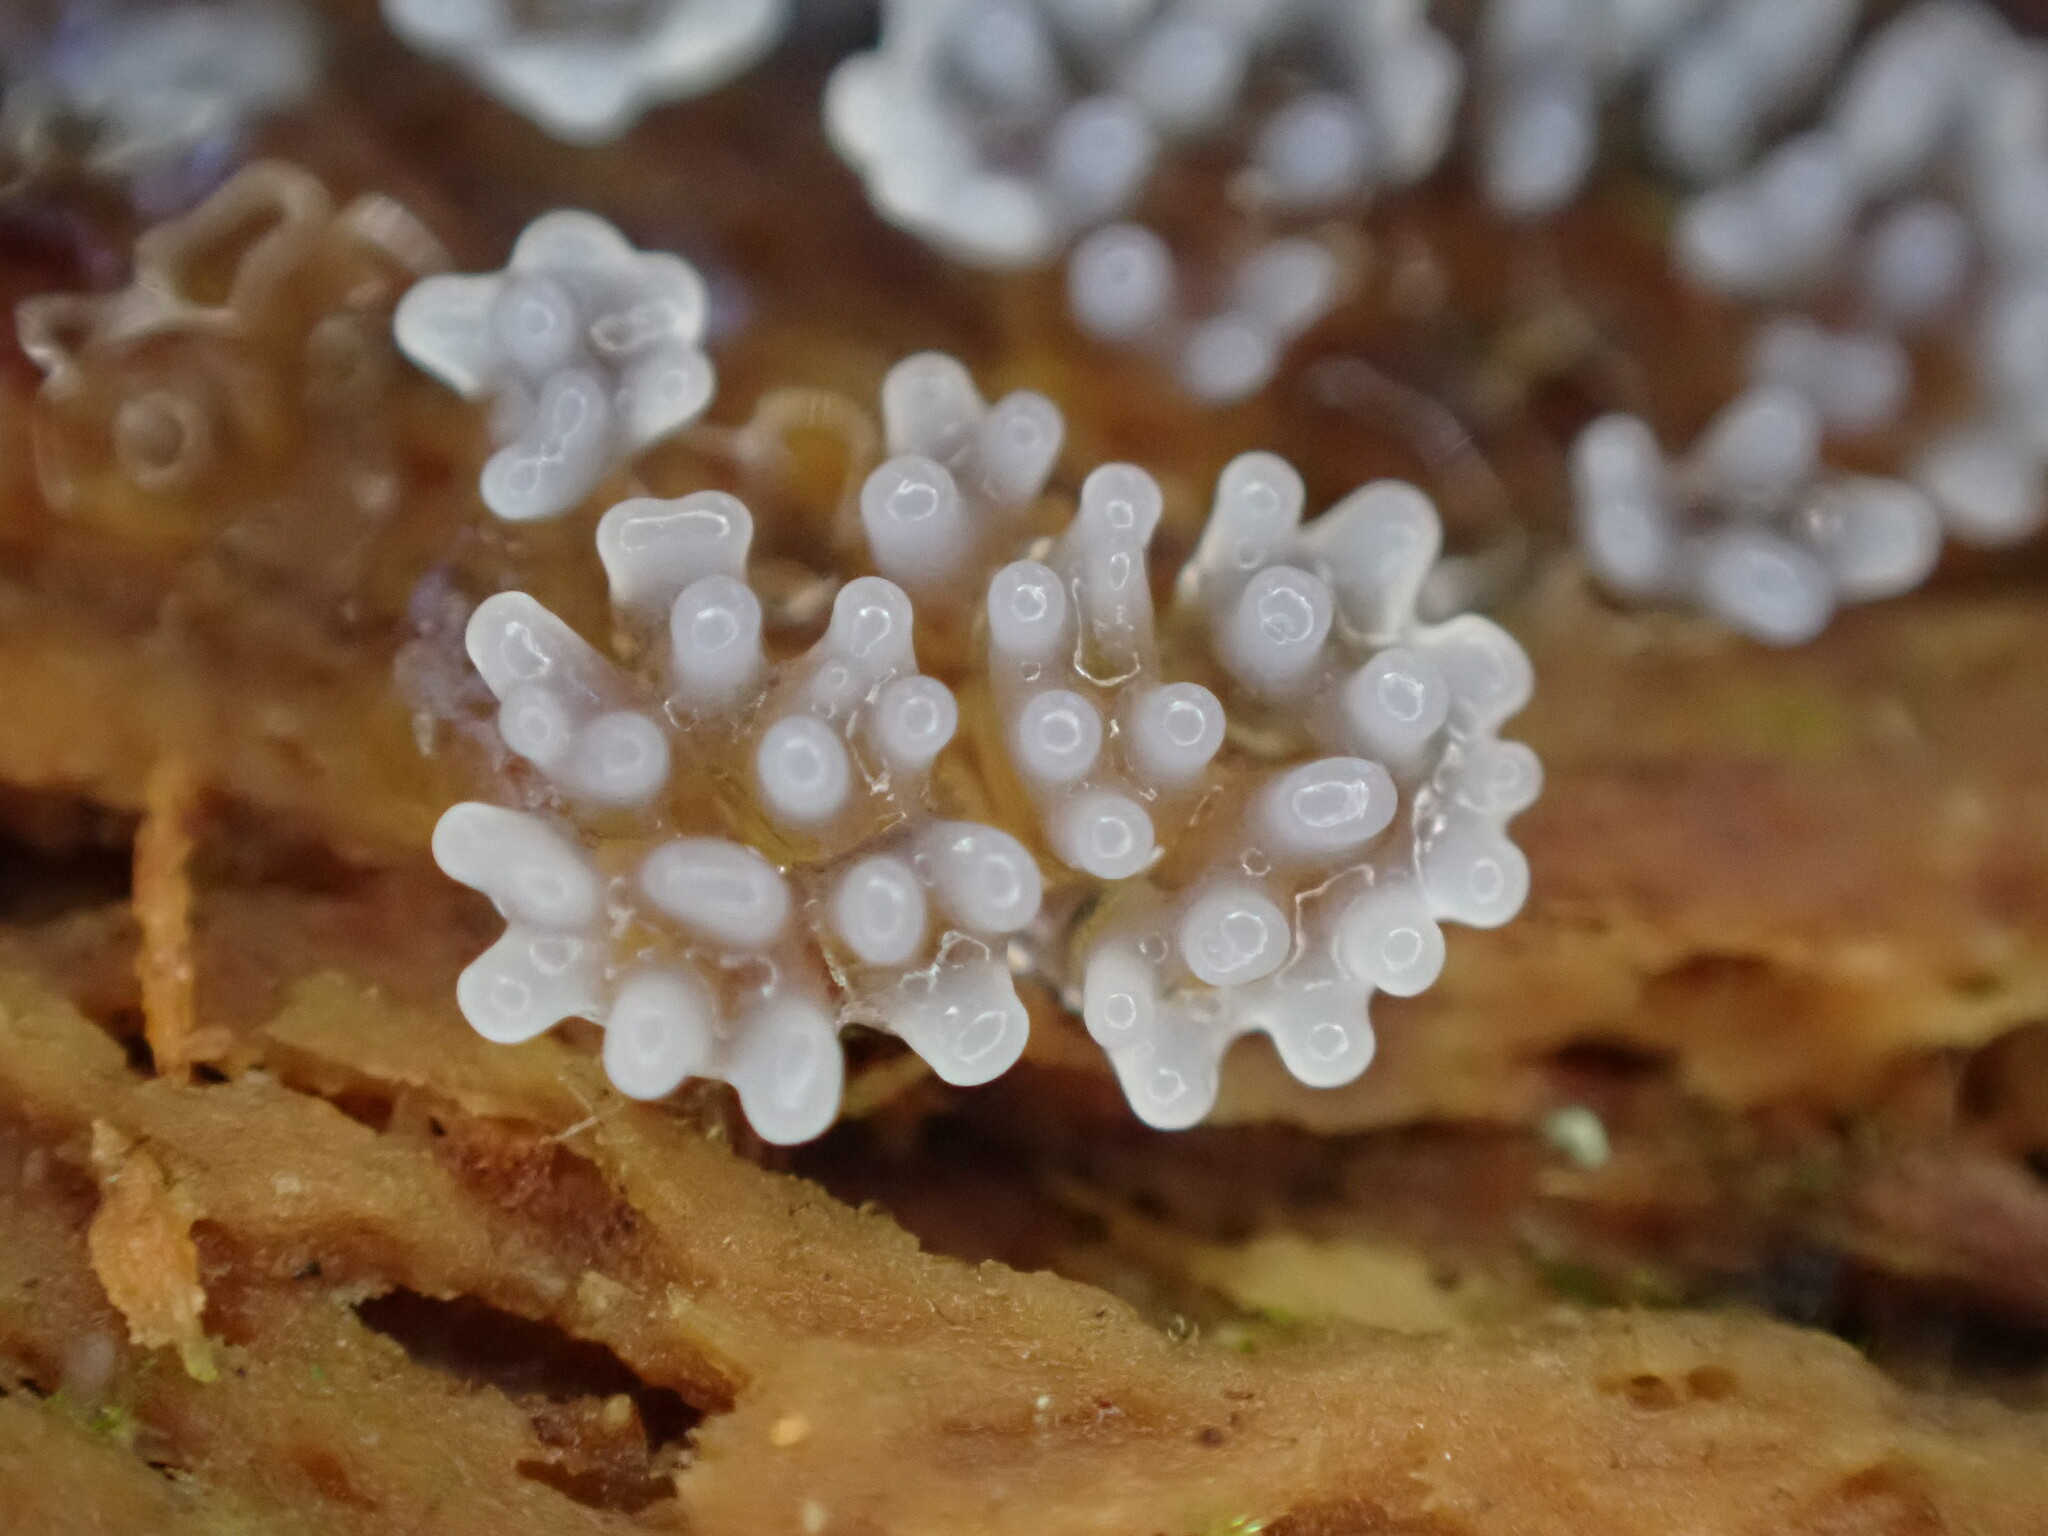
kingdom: Protozoa
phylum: Mycetozoa
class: Protosteliomycetes
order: Ceratiomyxales
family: Ceratiomyxaceae
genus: Ceratiomyxa
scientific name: Ceratiomyxa fruticulosa
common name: Honeycomb coral slime mold
